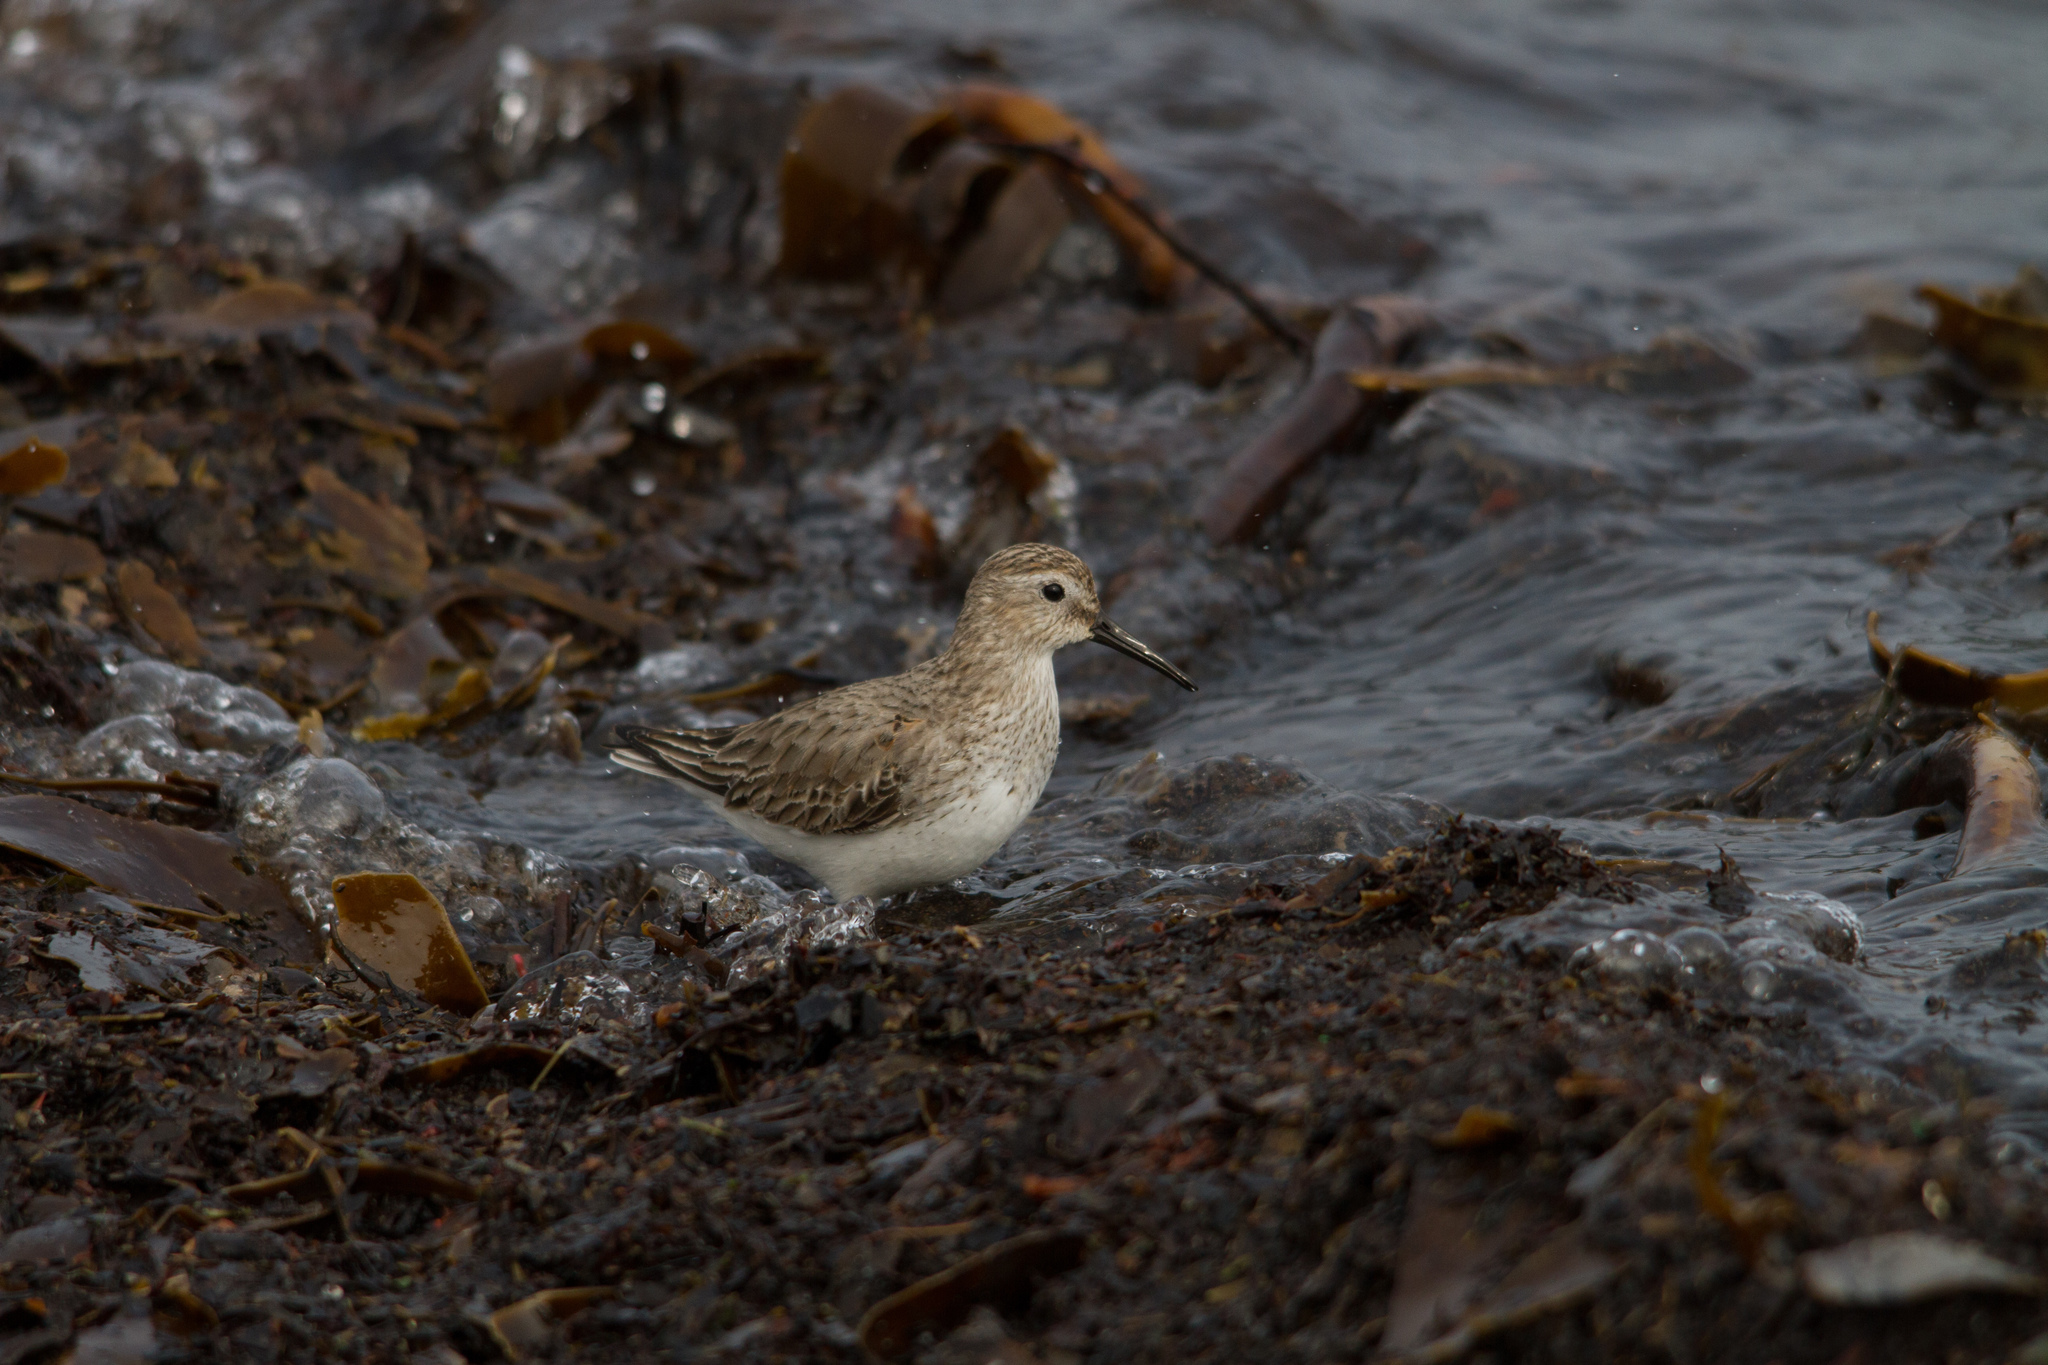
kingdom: Animalia
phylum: Chordata
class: Aves
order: Charadriiformes
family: Scolopacidae
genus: Calidris
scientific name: Calidris alpina
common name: Dunlin
